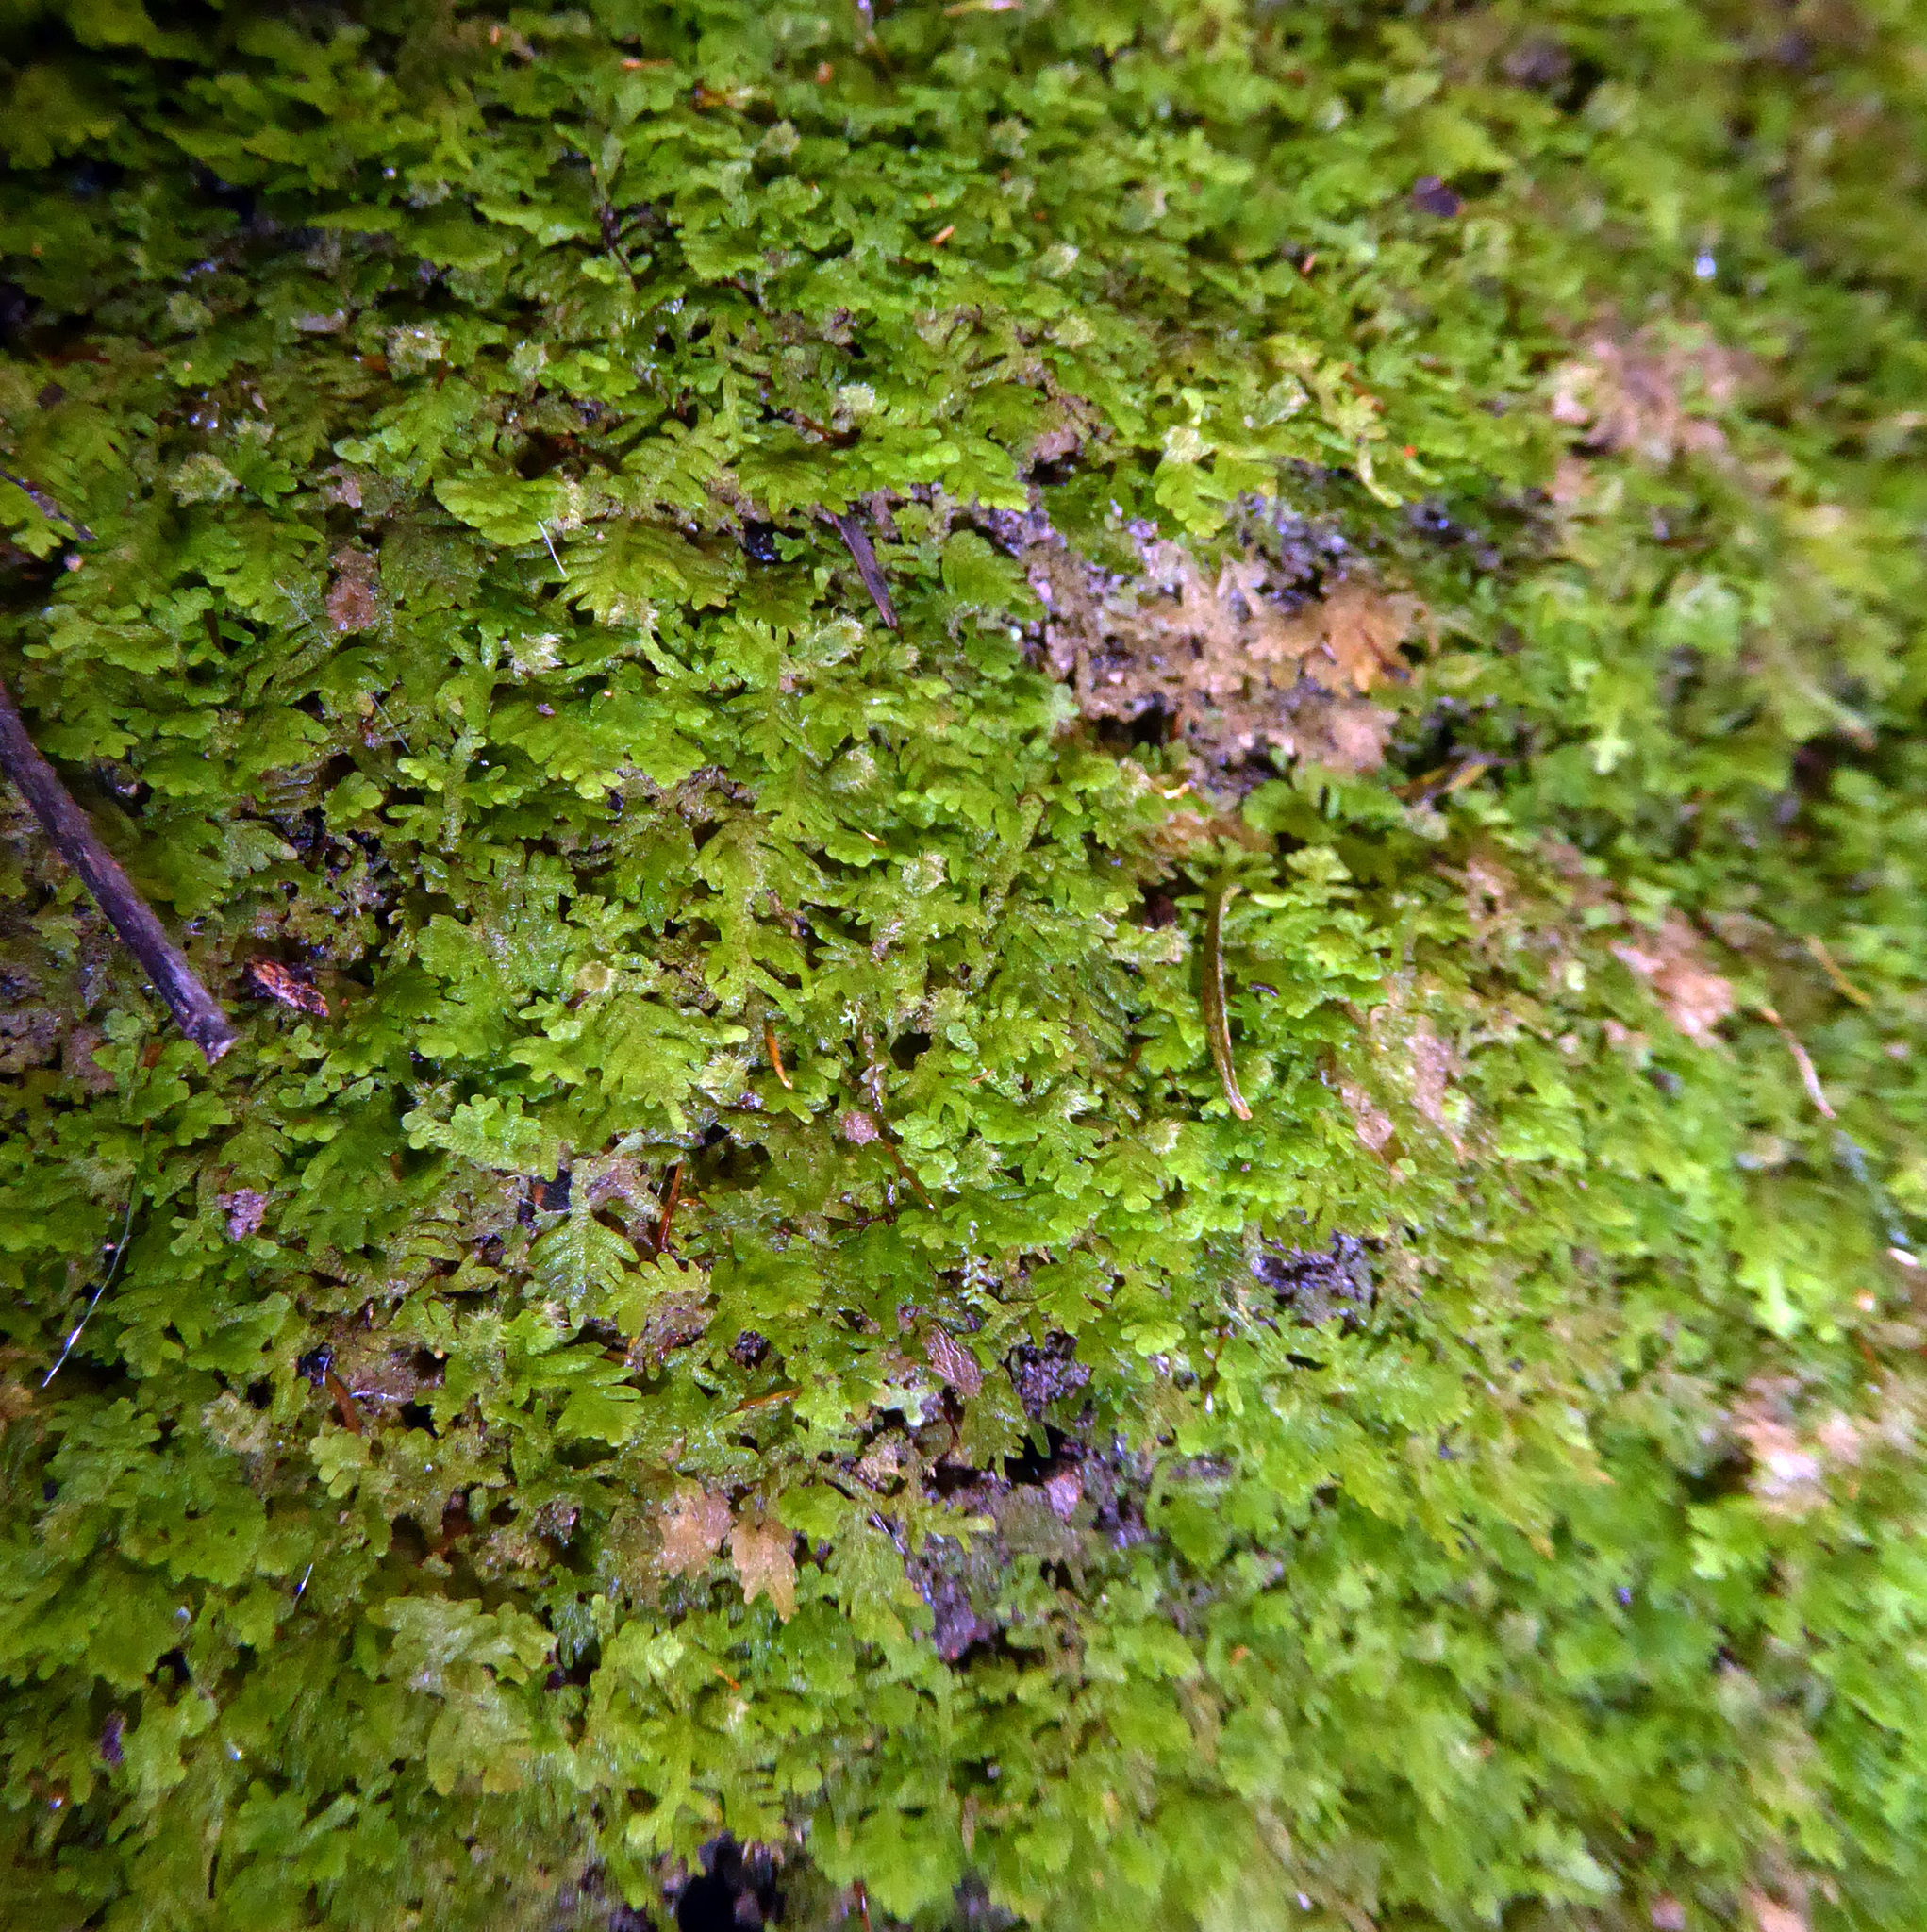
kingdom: Plantae
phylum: Marchantiophyta
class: Jungermanniopsida
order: Jungermanniales
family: Trichocoleaceae
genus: Trichocolea
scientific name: Trichocolea hatcheri
